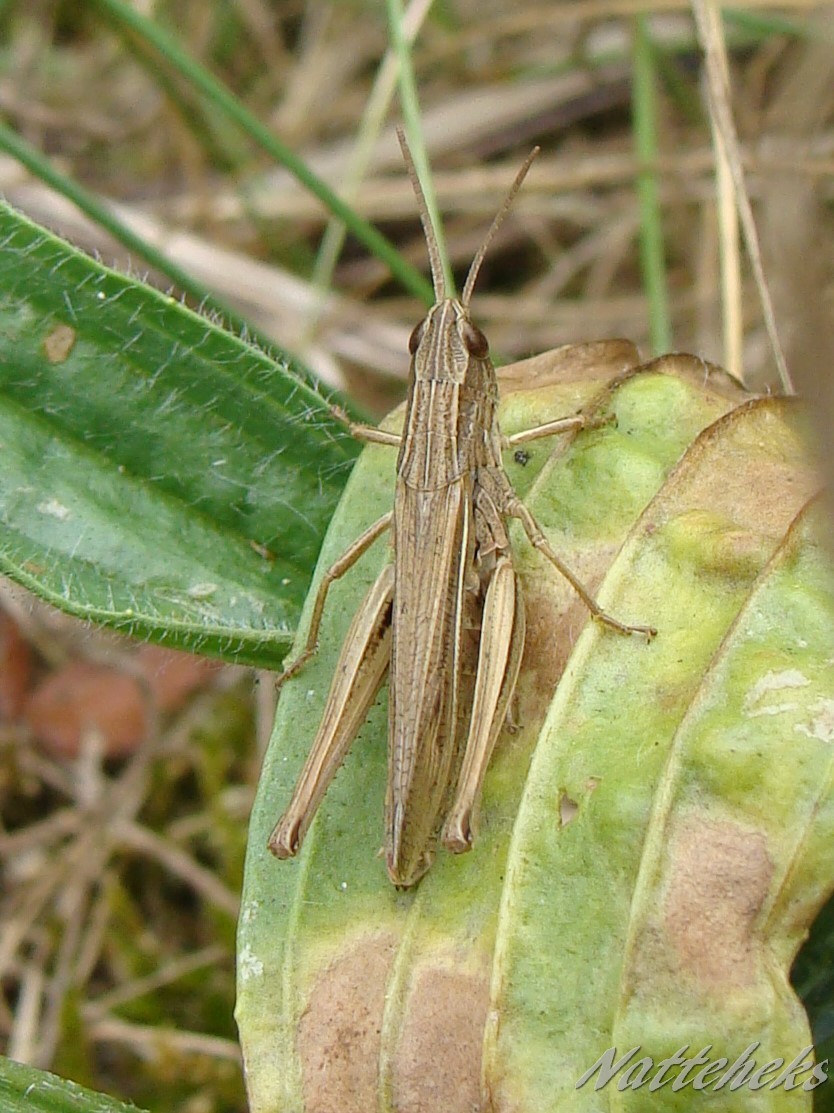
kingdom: Animalia
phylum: Arthropoda
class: Insecta
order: Orthoptera
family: Acrididae
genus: Chorthippus
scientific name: Chorthippus albomarginatus
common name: Lesser marsh grasshopper
